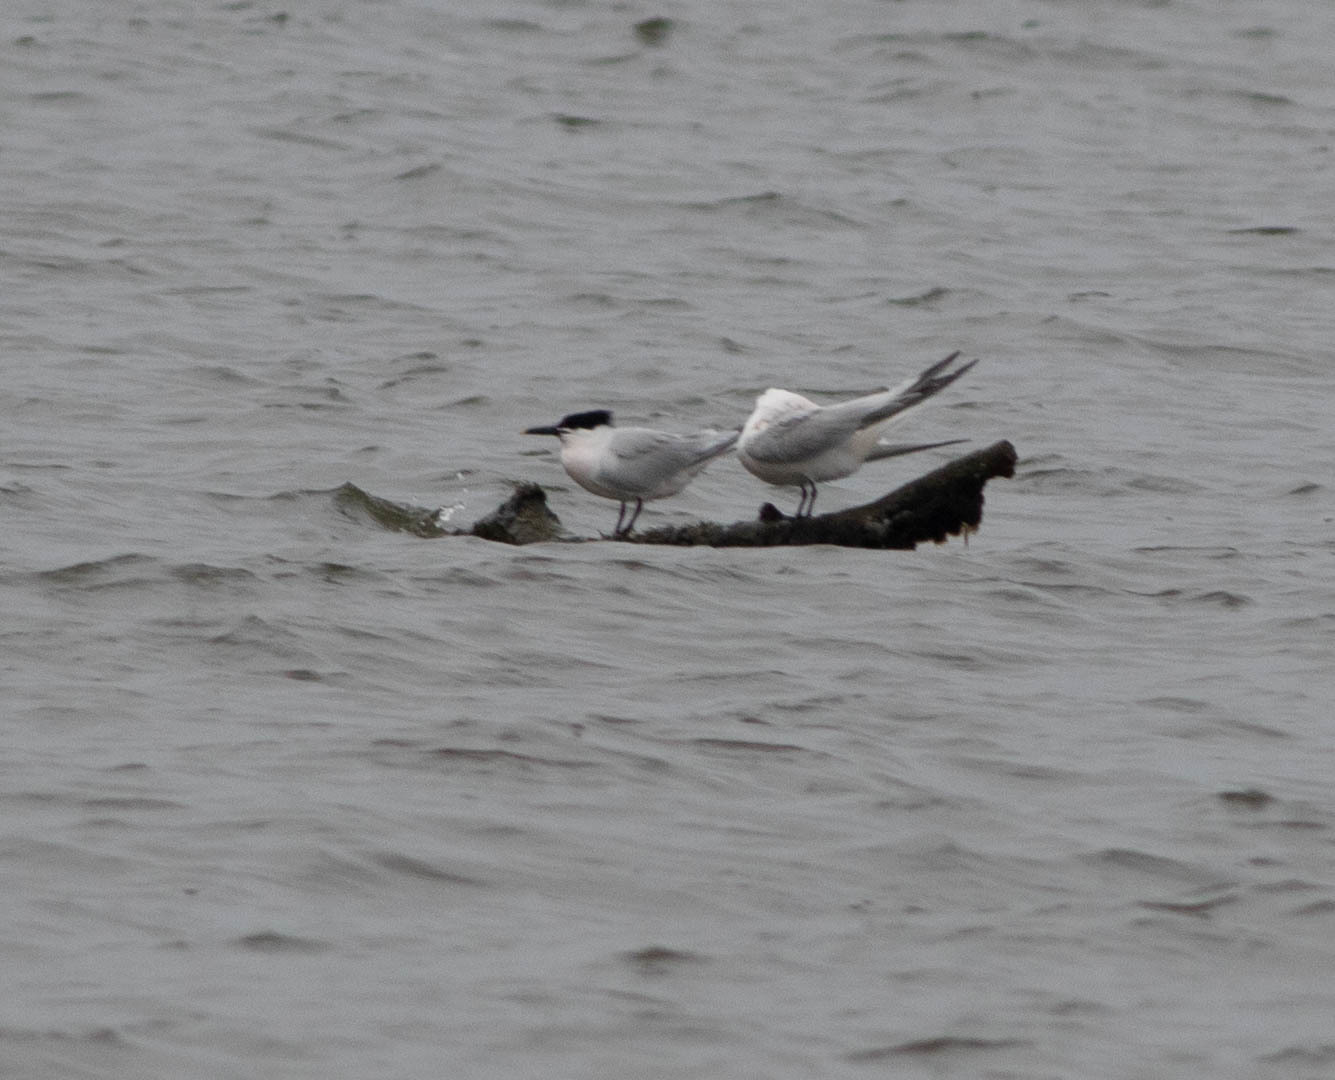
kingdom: Animalia
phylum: Chordata
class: Aves
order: Charadriiformes
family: Laridae
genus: Thalasseus
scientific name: Thalasseus sandvicensis
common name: Sandwich tern
